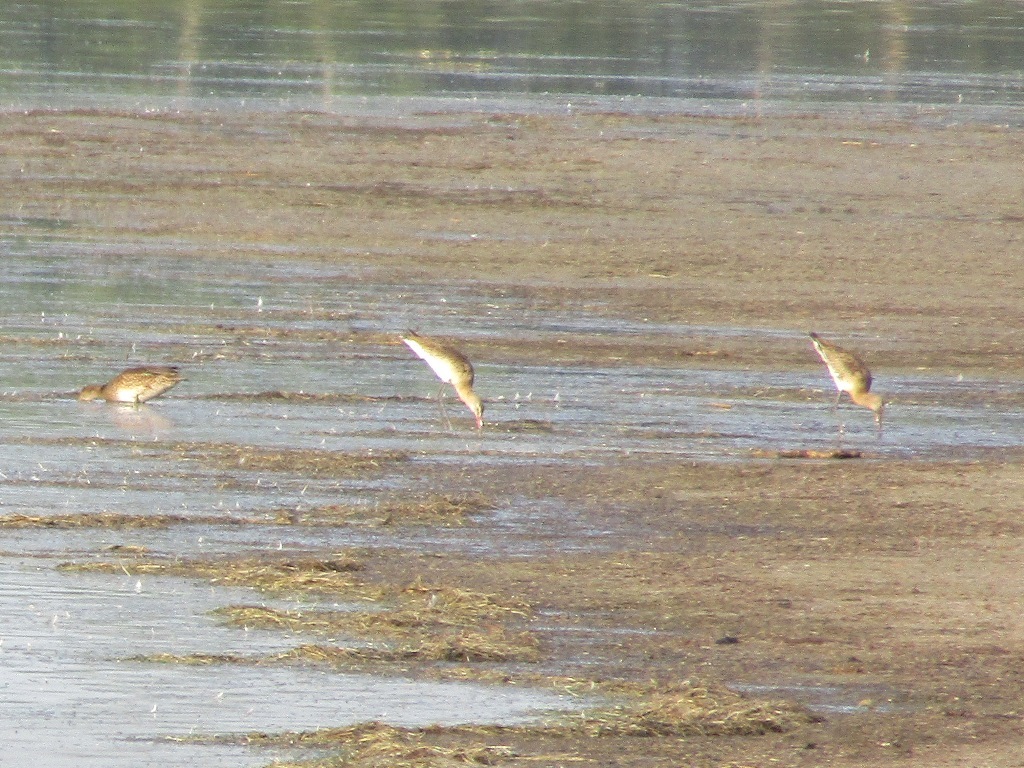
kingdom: Animalia
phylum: Chordata
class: Aves
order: Charadriiformes
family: Scolopacidae
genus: Limosa
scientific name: Limosa limosa
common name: Black-tailed godwit
